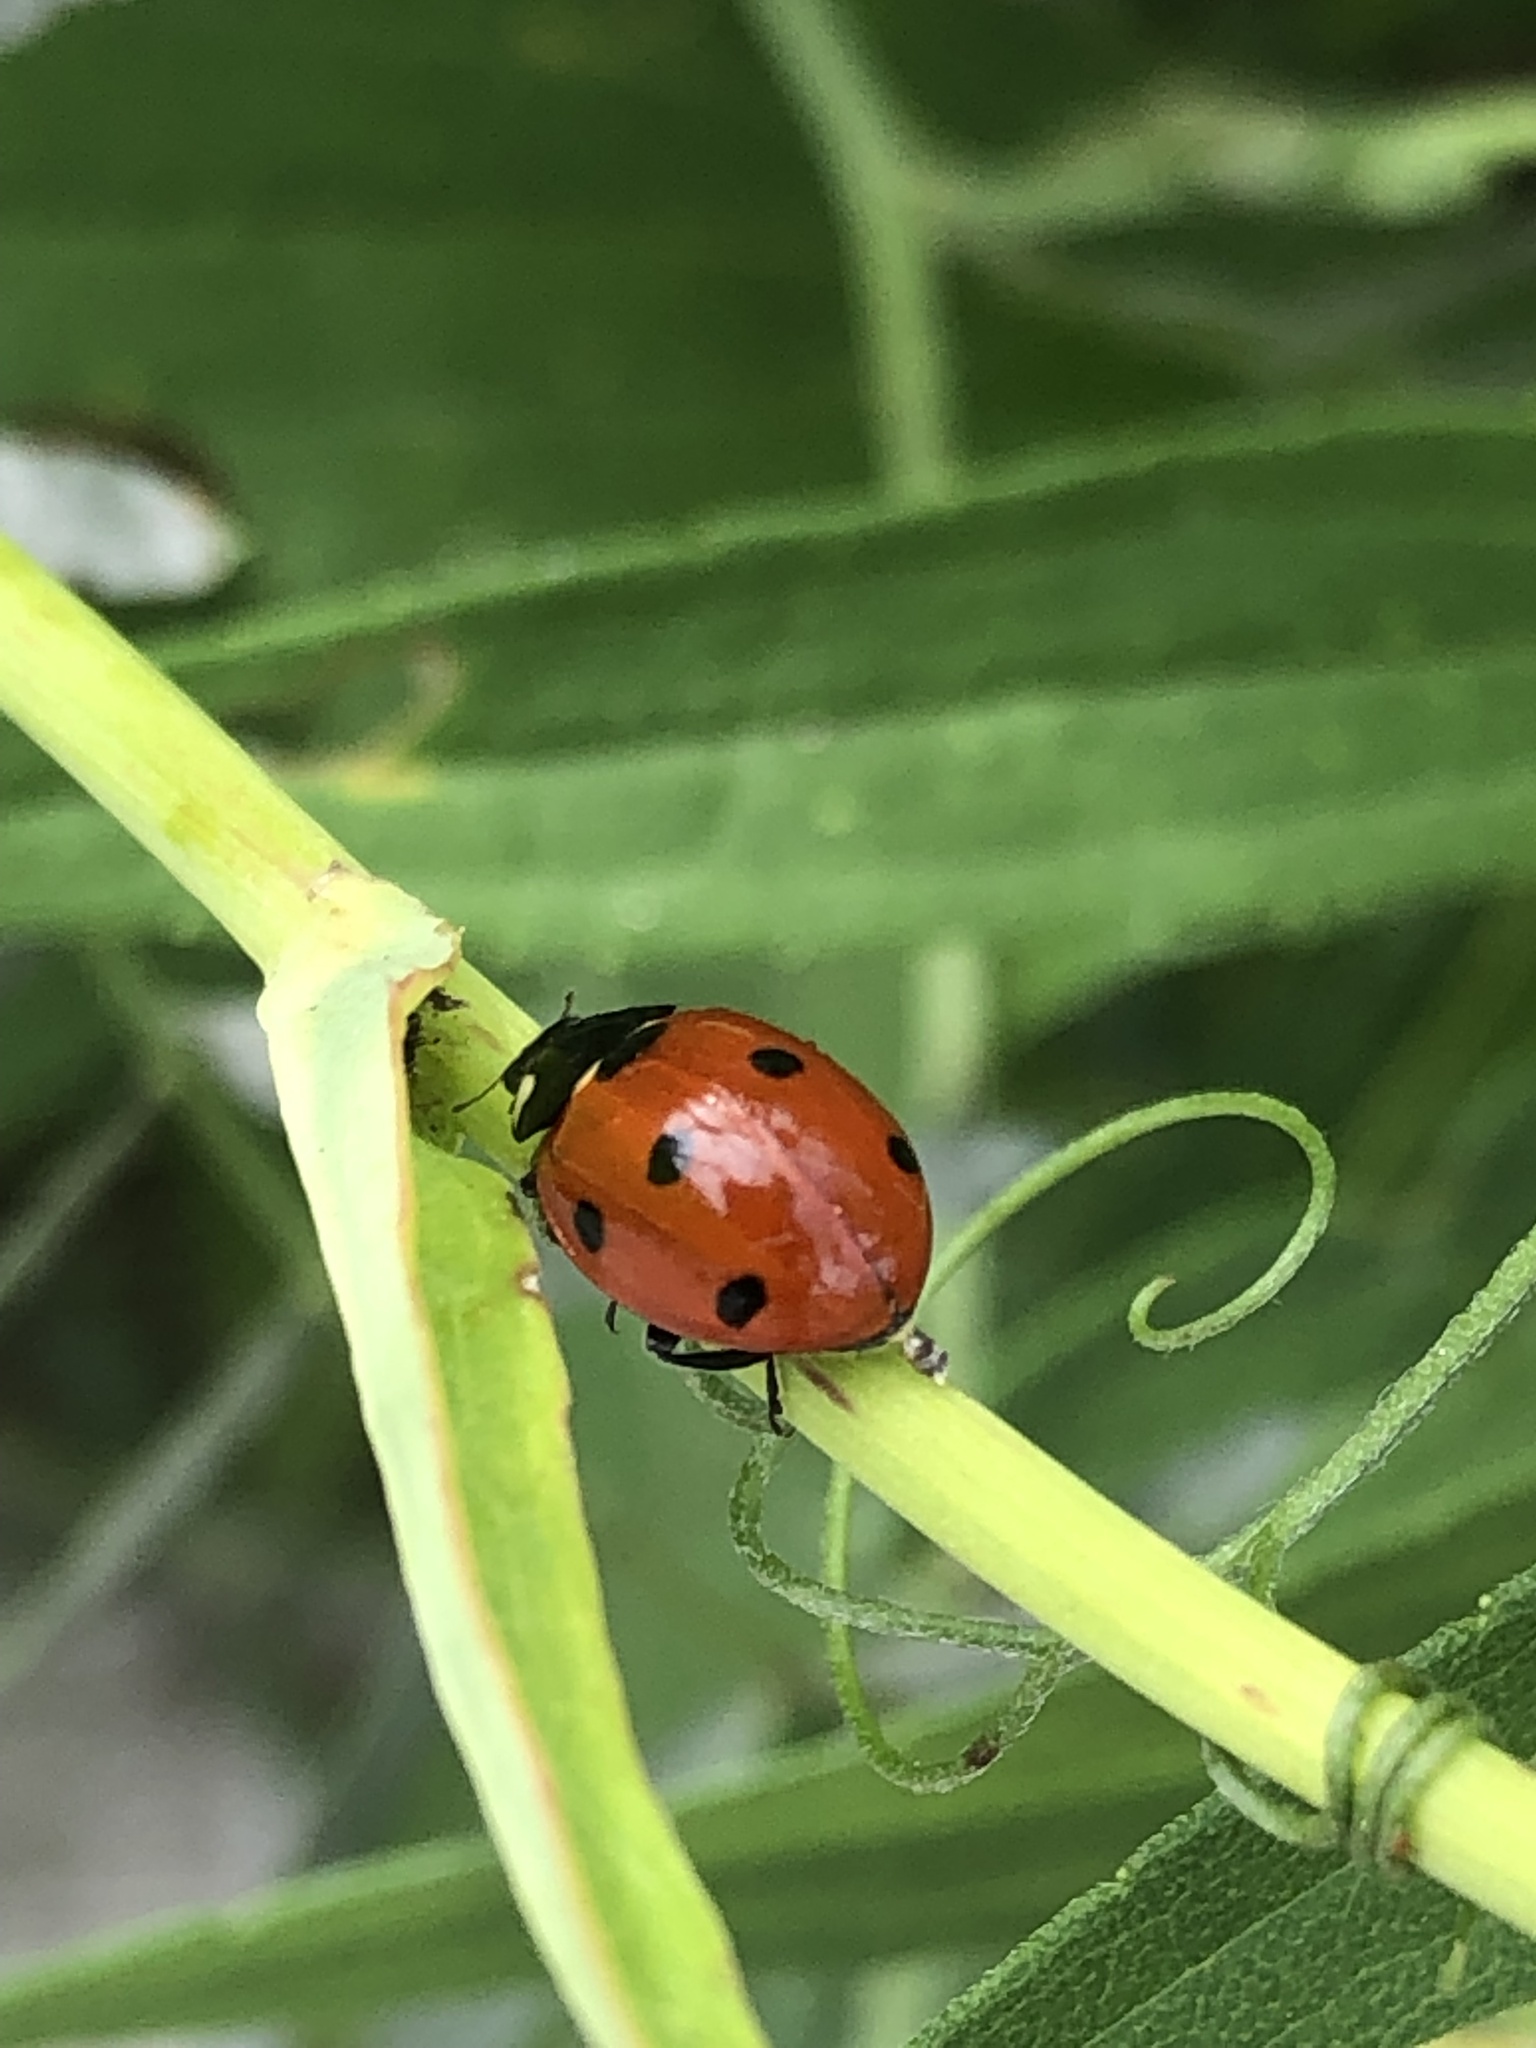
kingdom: Animalia
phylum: Arthropoda
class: Insecta
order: Coleoptera
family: Coccinellidae
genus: Coccinella
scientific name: Coccinella septempunctata
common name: Sevenspotted lady beetle
